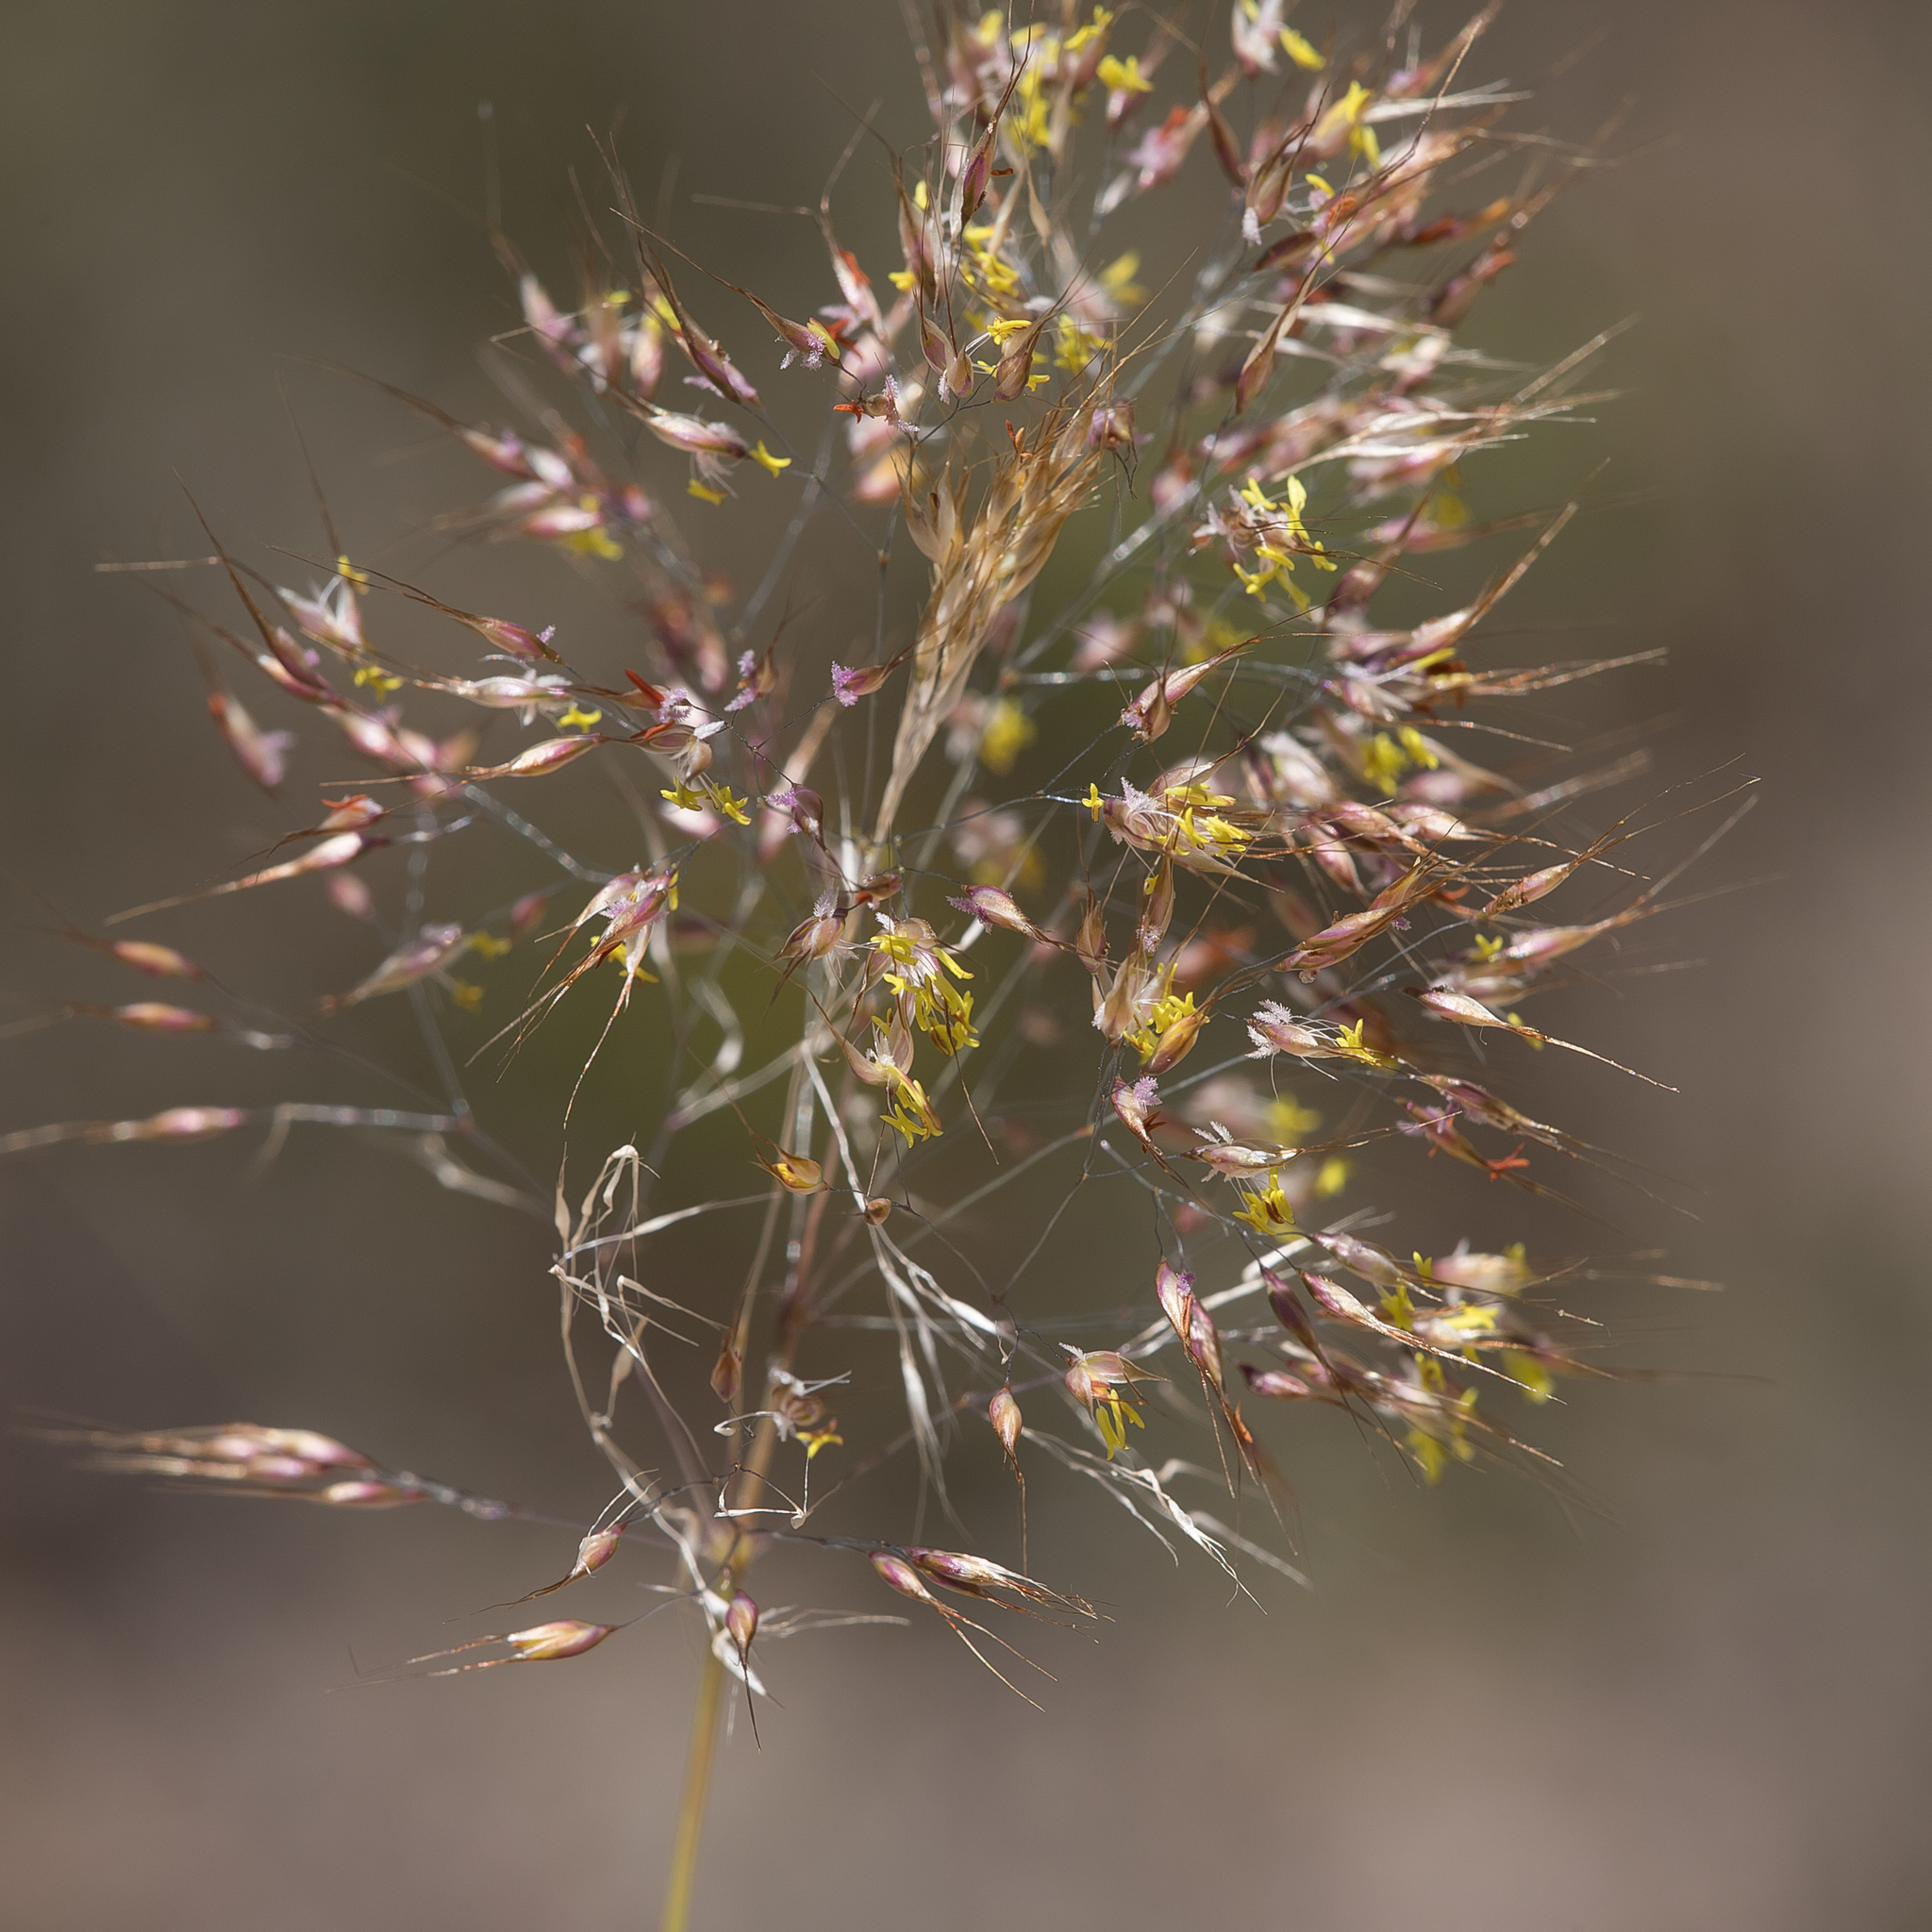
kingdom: Plantae
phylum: Tracheophyta
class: Liliopsida
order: Poales
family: Poaceae
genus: Pentameris
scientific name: Pentameris pallida
